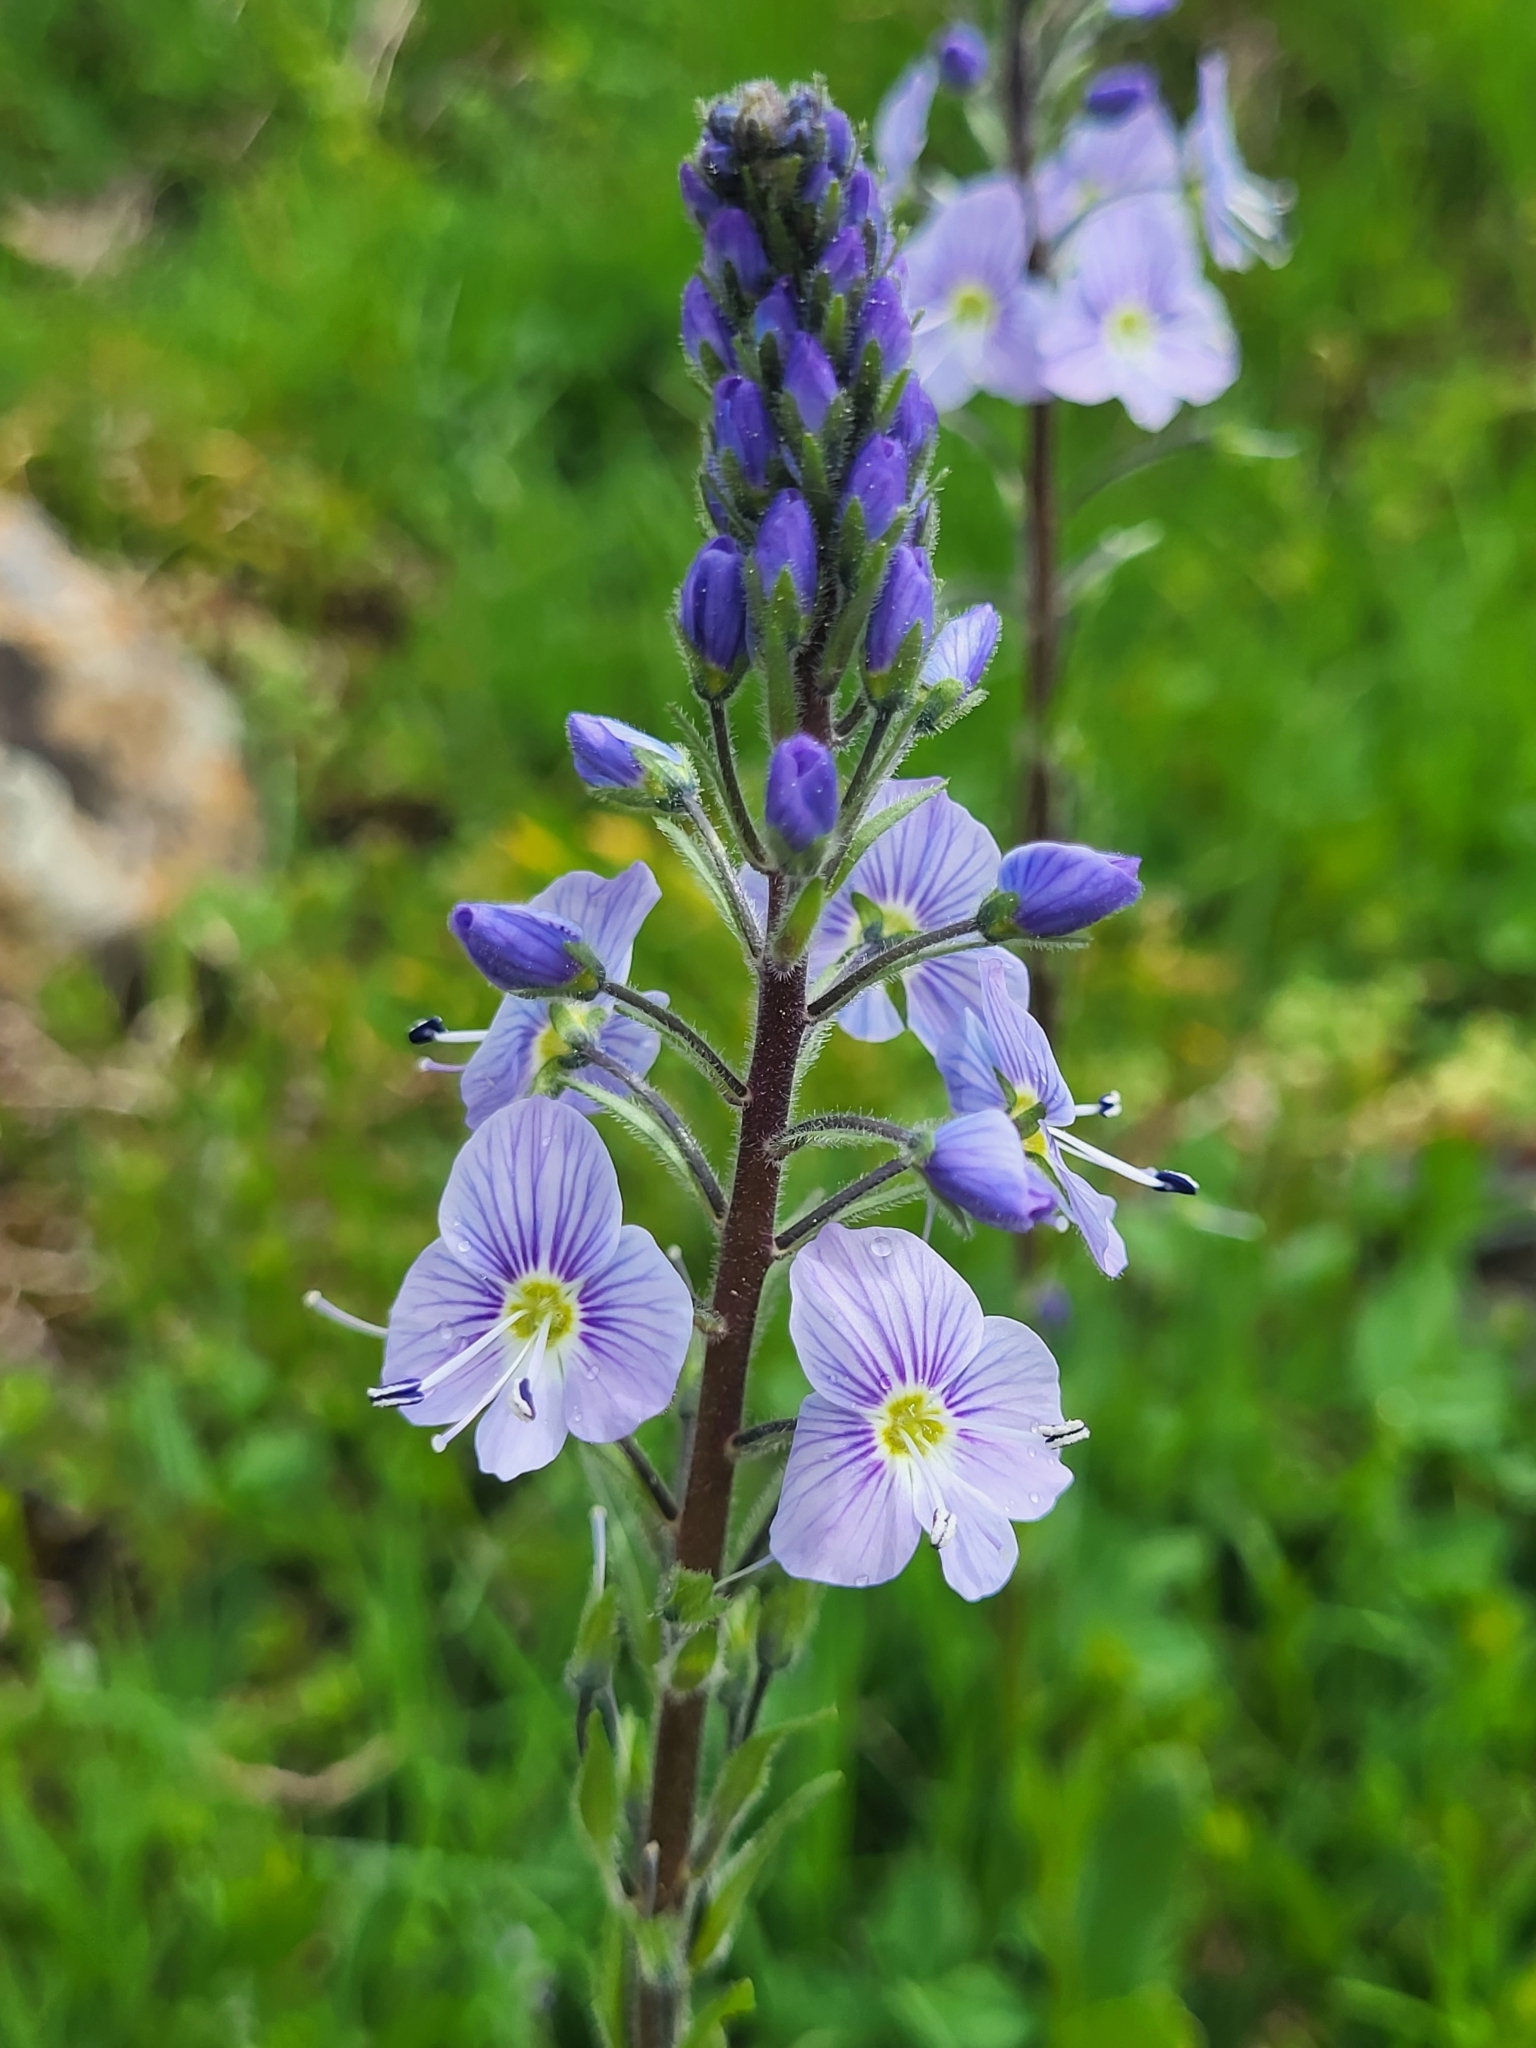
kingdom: Plantae
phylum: Tracheophyta
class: Magnoliopsida
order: Lamiales
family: Plantaginaceae
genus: Veronica
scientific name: Veronica gentianoides
